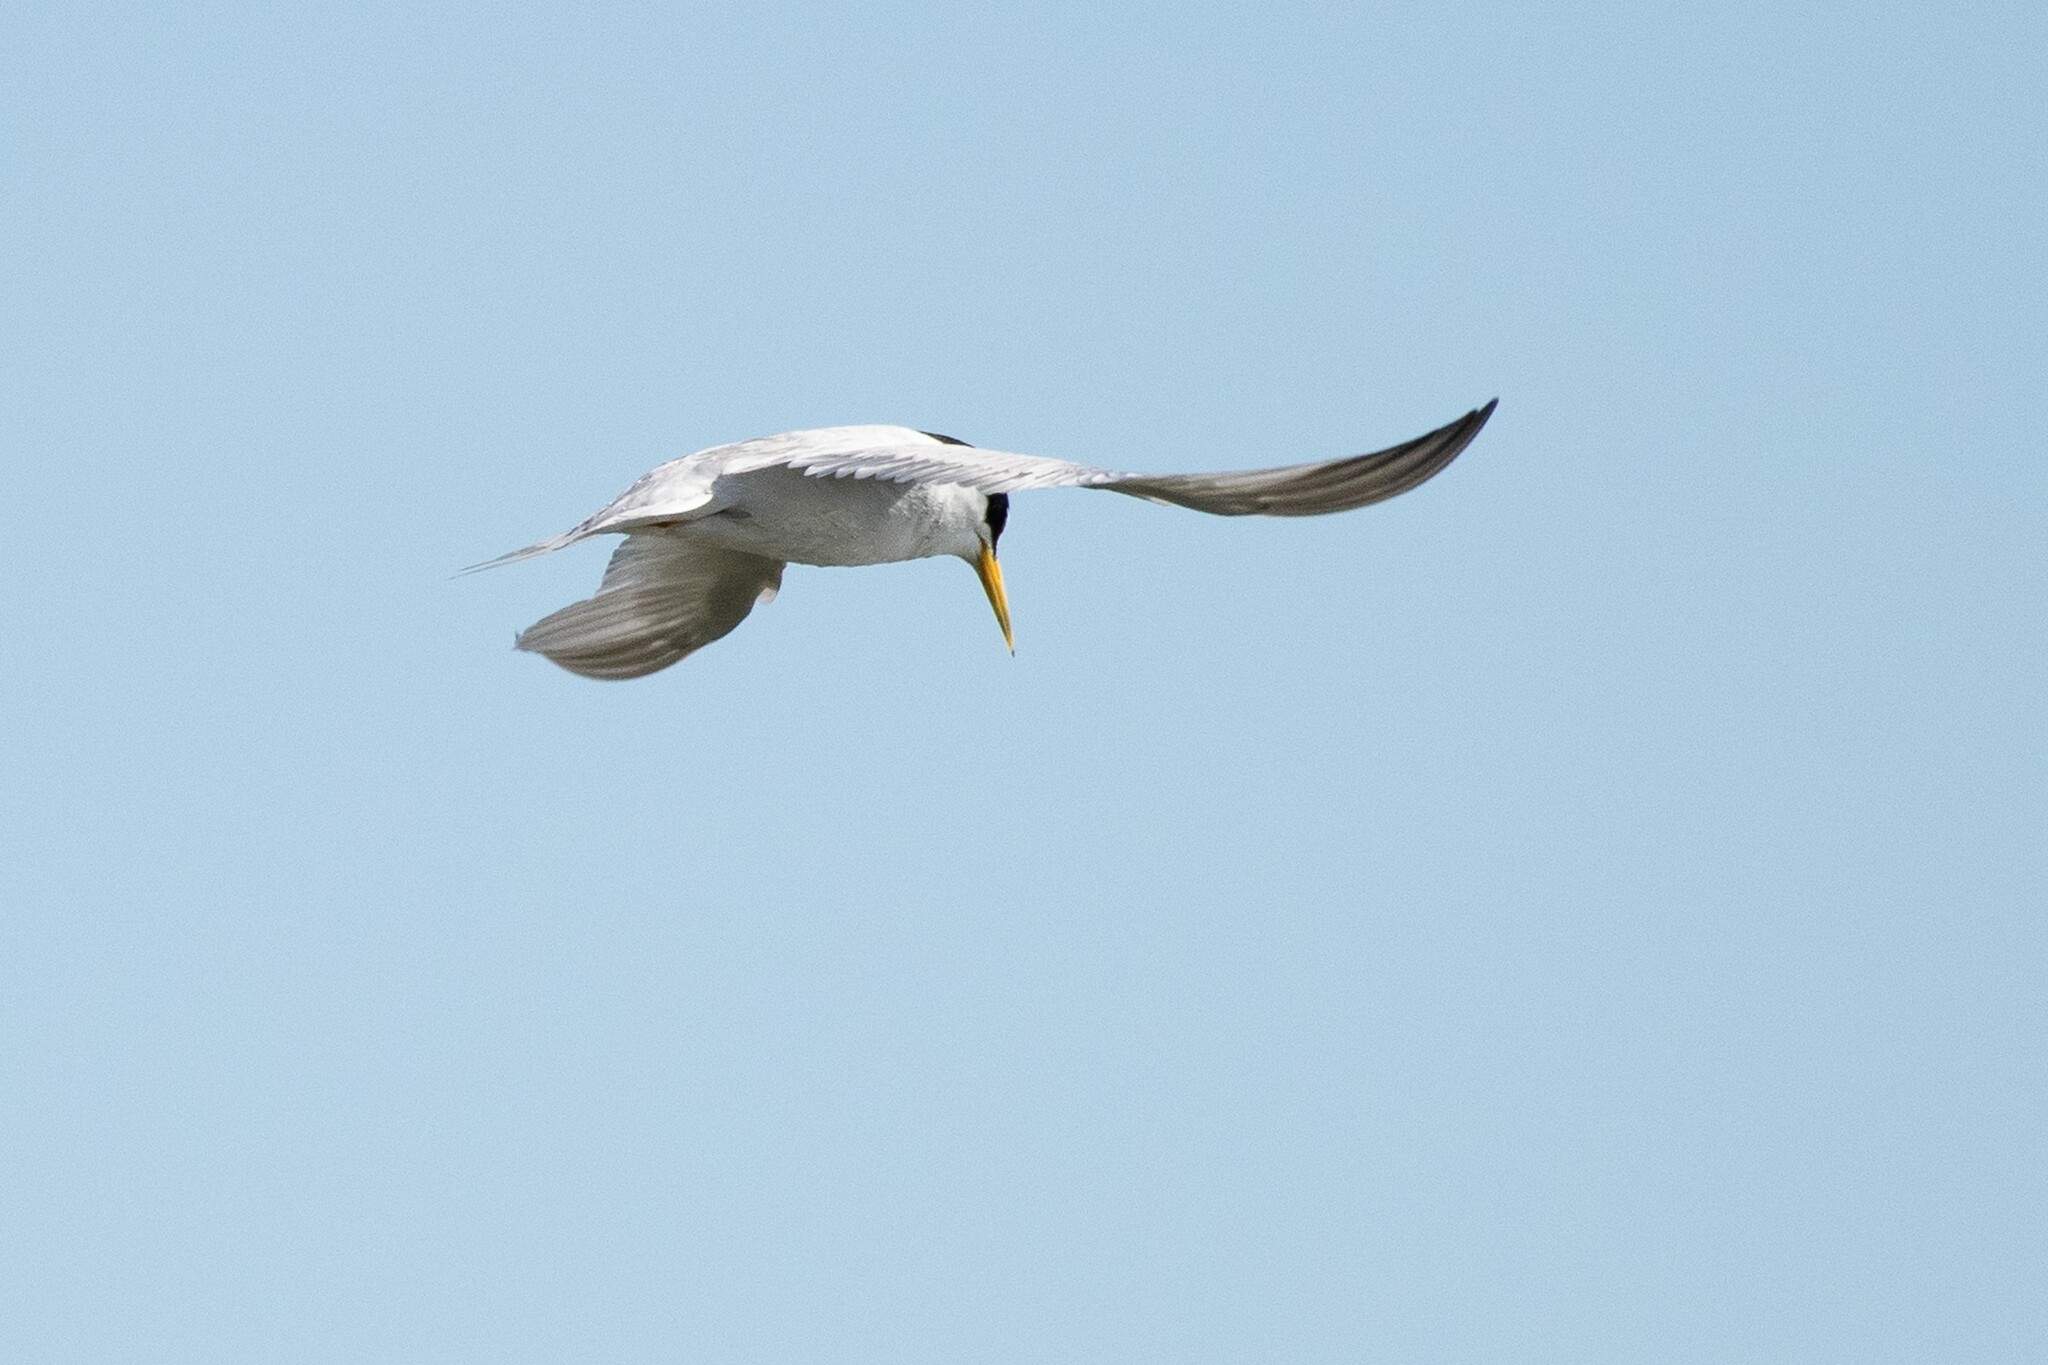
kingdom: Animalia
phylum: Chordata
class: Aves
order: Charadriiformes
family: Laridae
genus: Sternula
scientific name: Sternula antillarum
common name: Least tern
